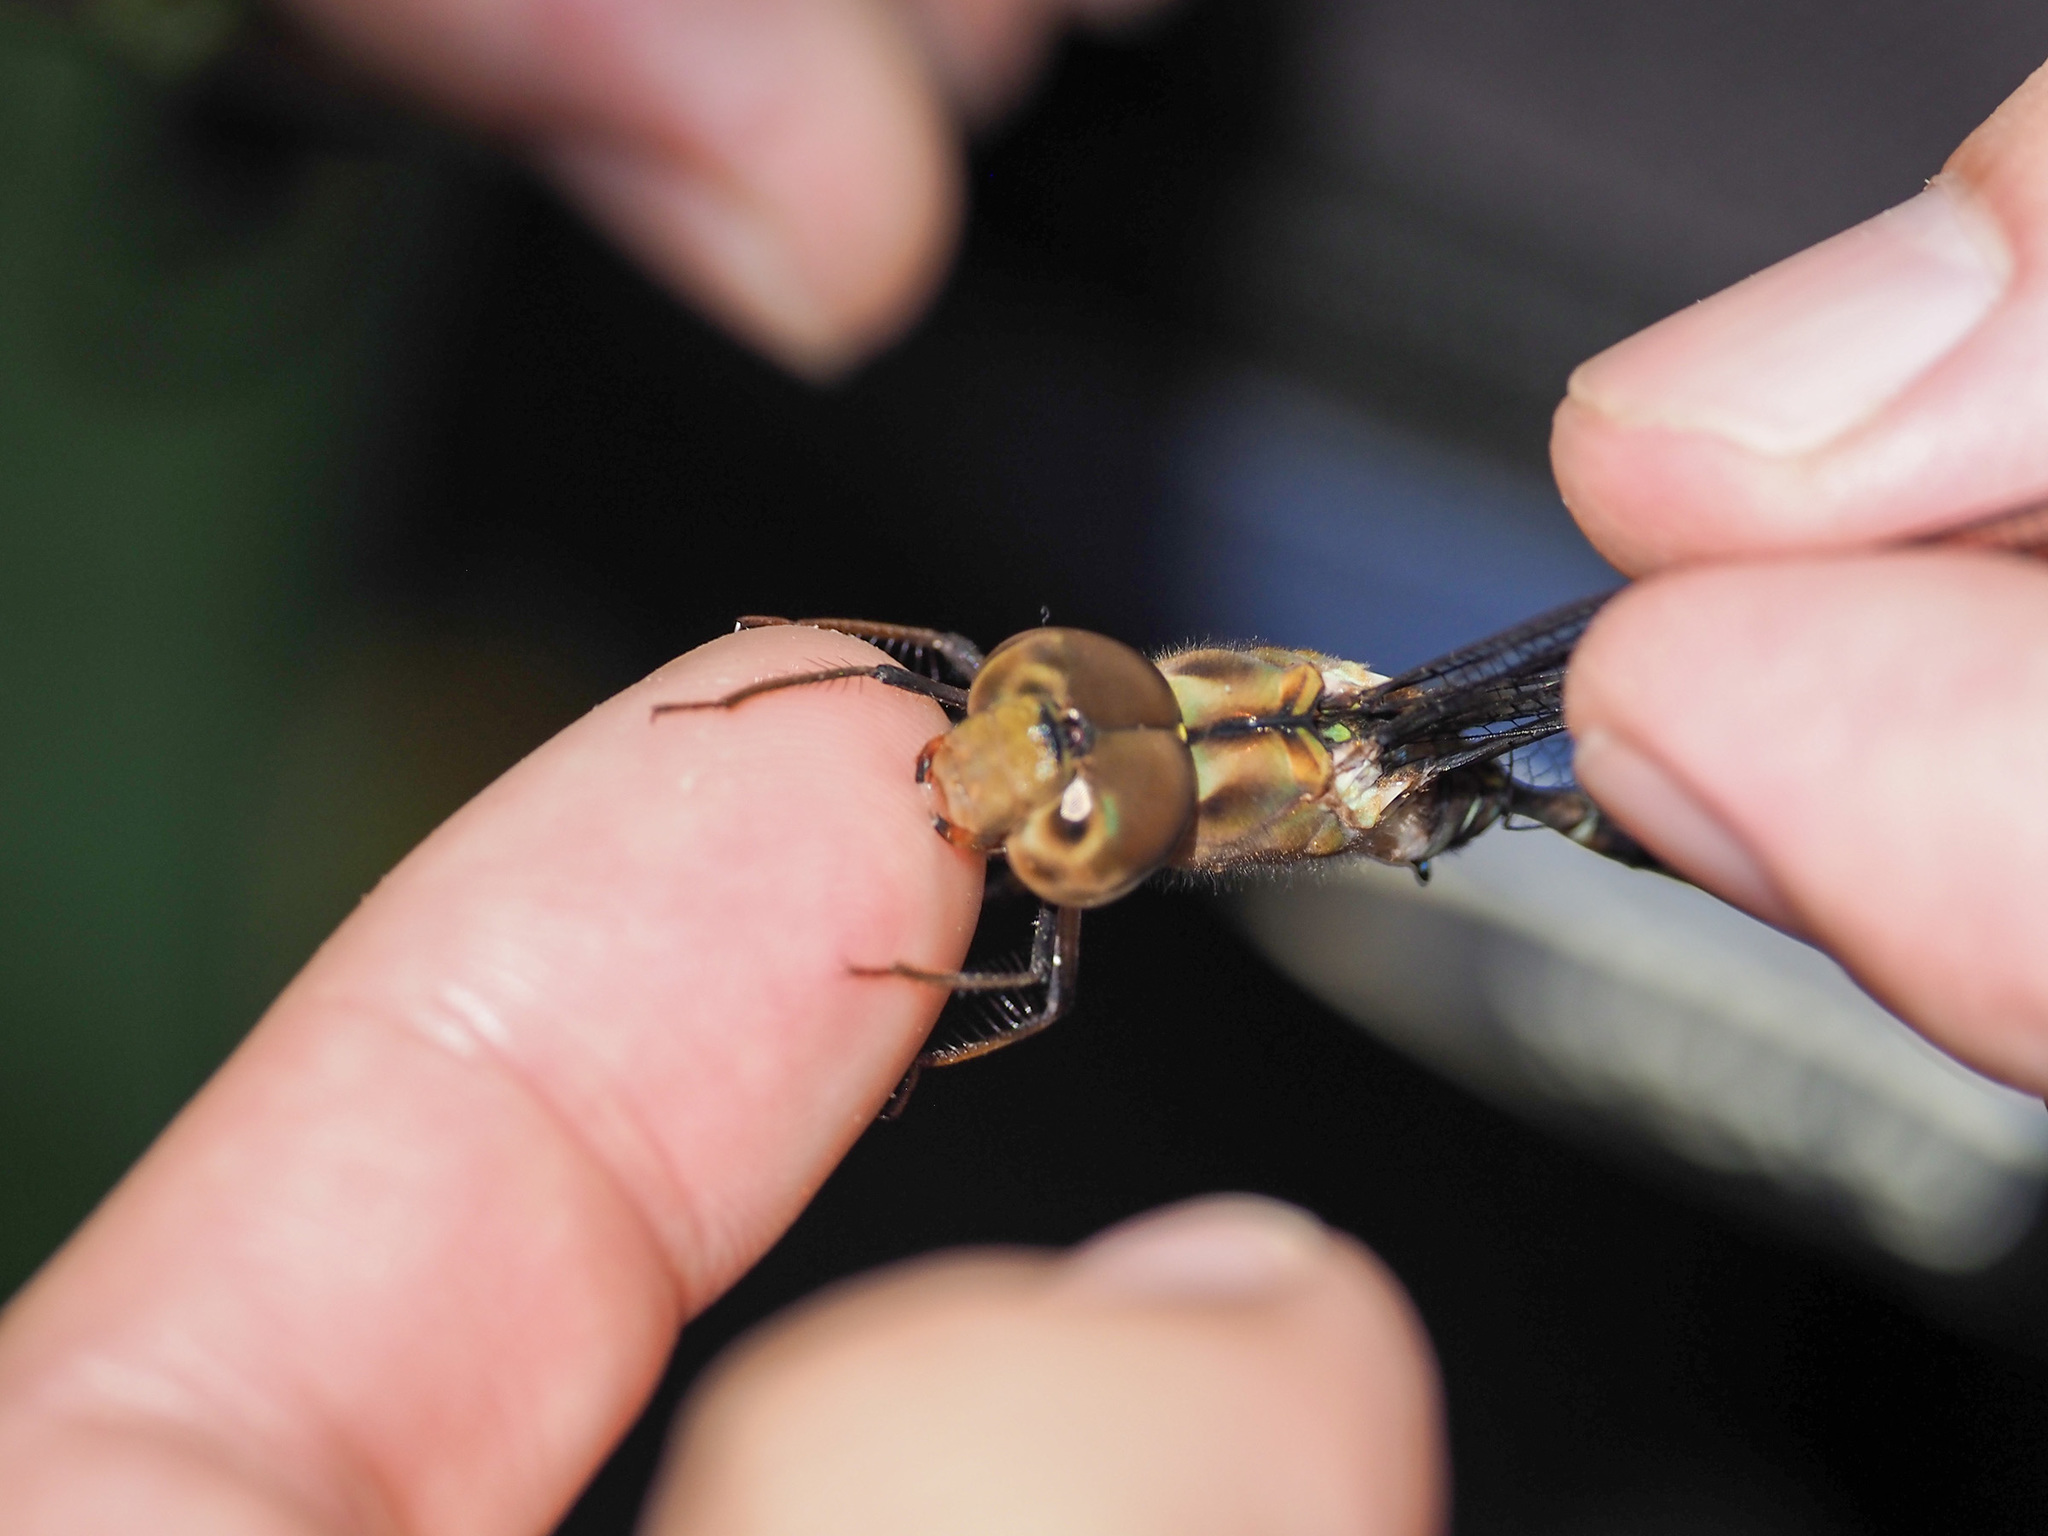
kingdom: Animalia
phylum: Arthropoda
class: Insecta
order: Odonata
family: Aeshnidae
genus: Gynacantha
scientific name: Gynacantha subinterrupta
